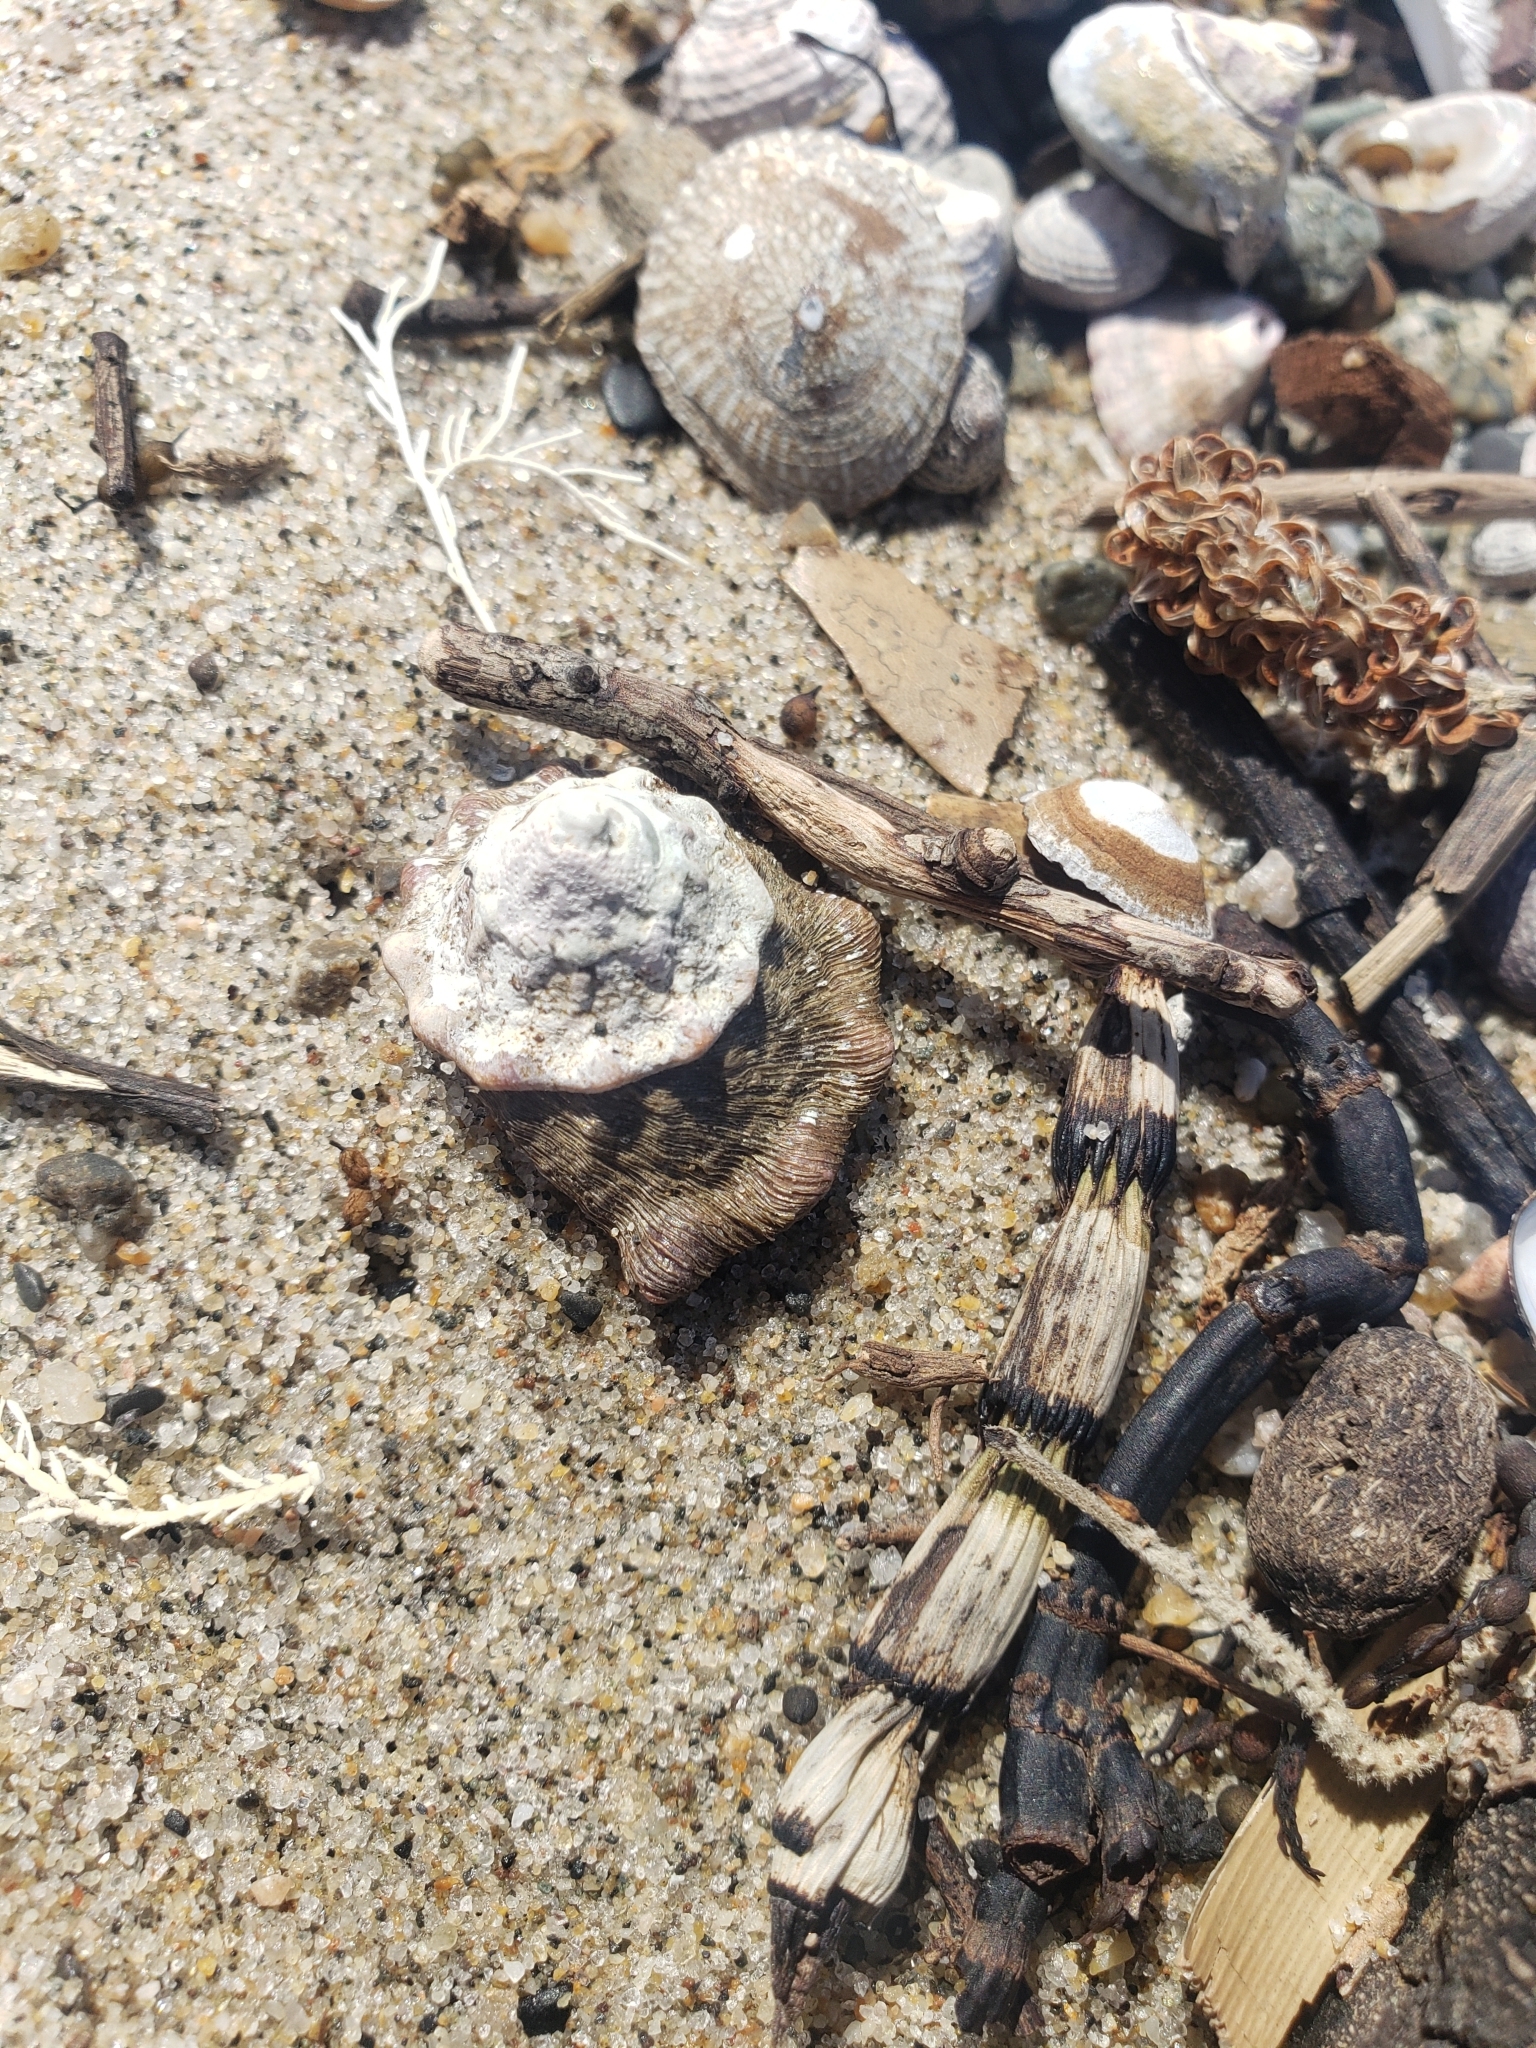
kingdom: Animalia
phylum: Mollusca
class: Gastropoda
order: Trochida
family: Turbinidae
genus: Megastraea
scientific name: Megastraea undosa
